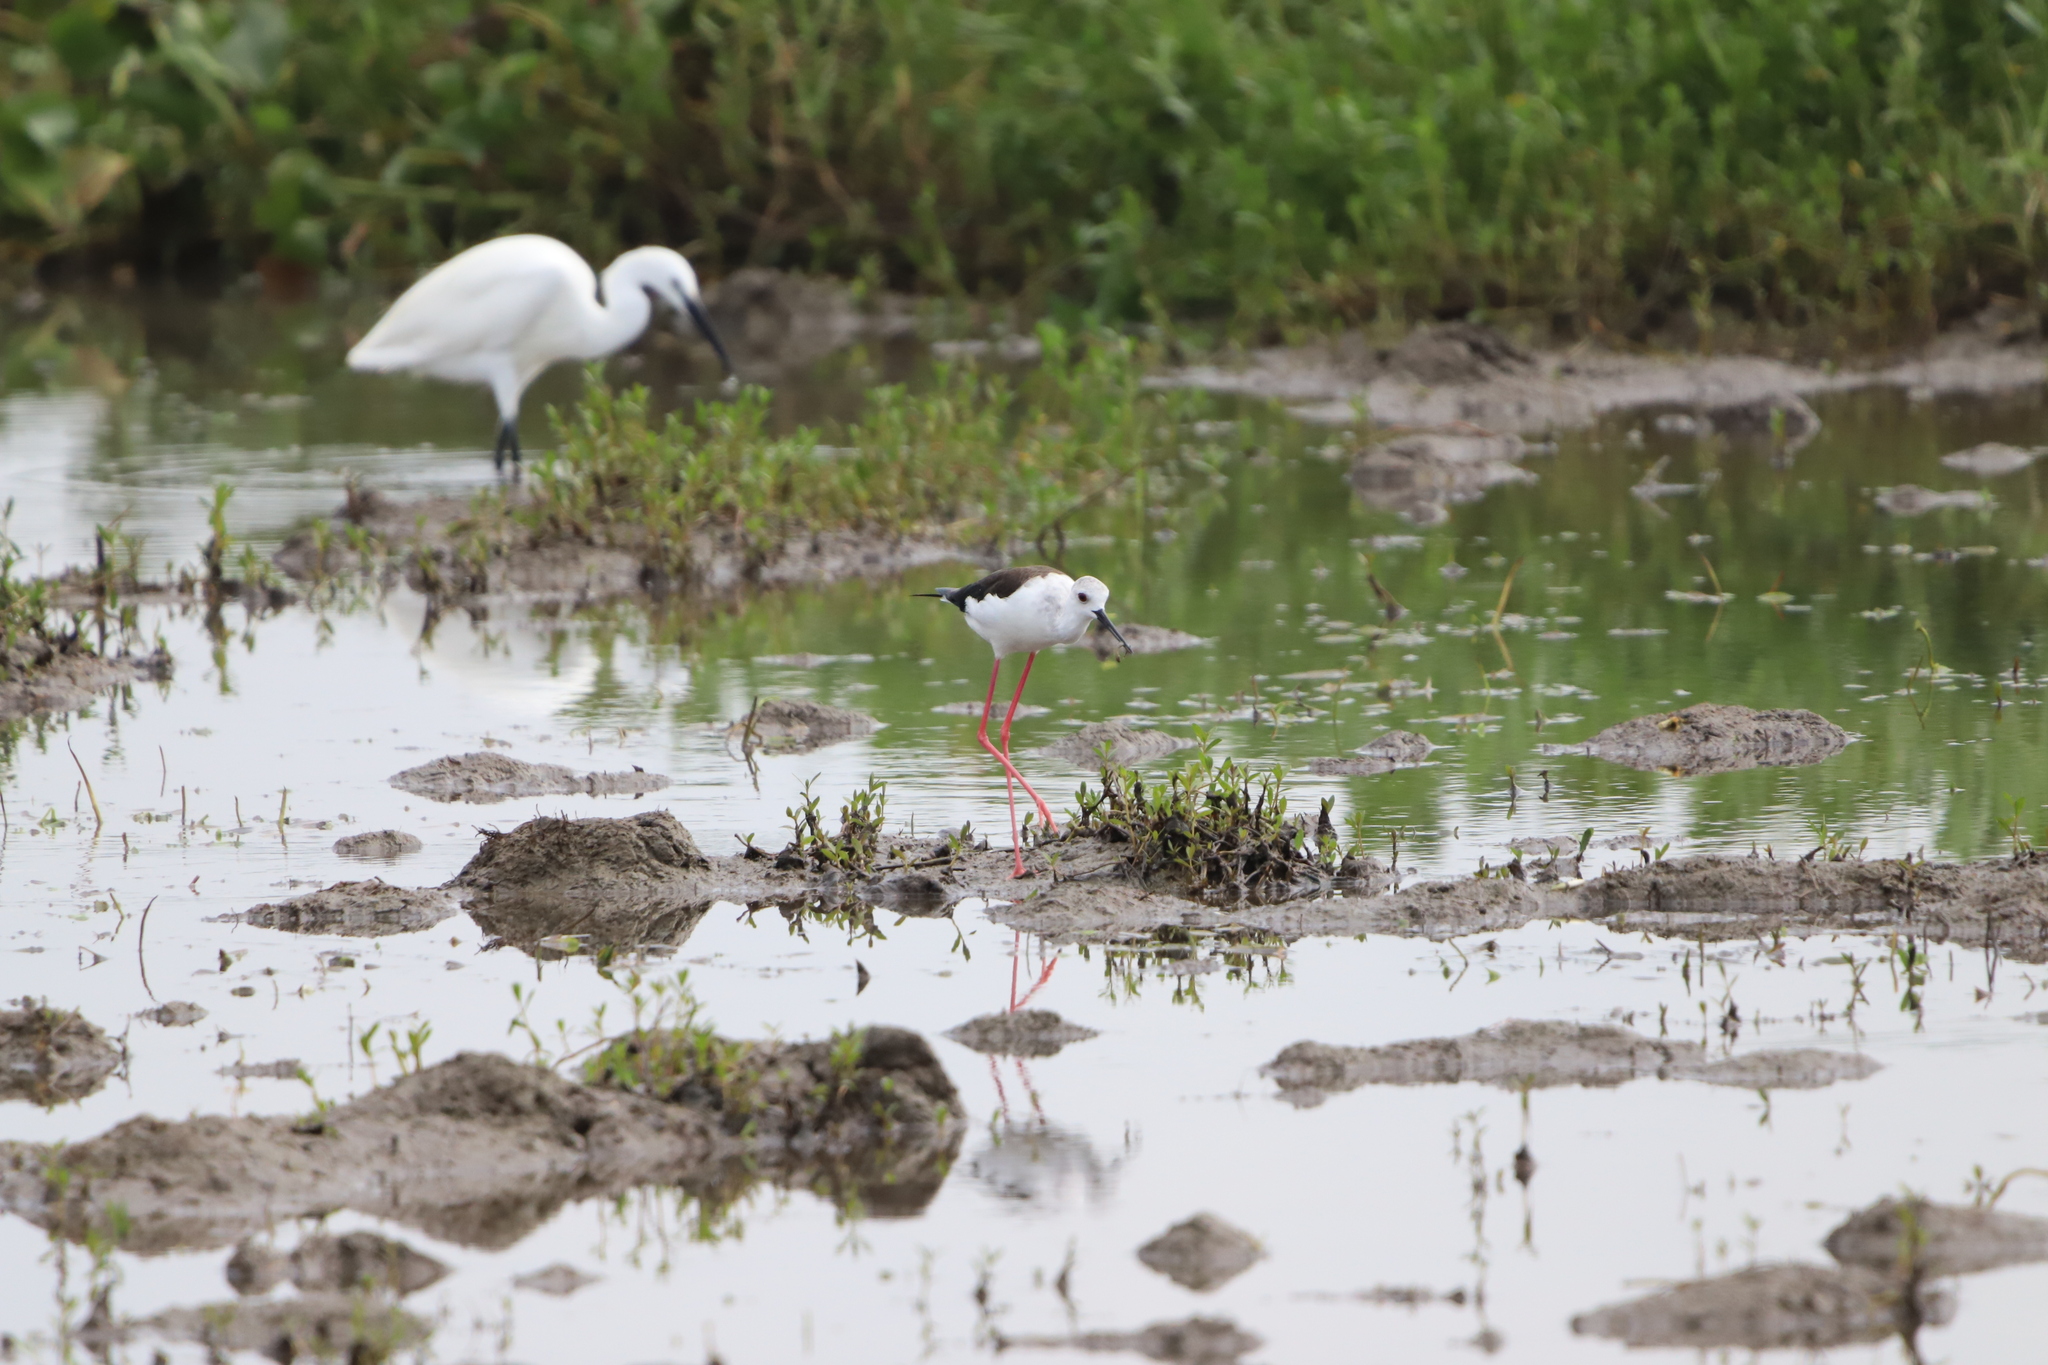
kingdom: Animalia
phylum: Chordata
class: Aves
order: Charadriiformes
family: Recurvirostridae
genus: Himantopus
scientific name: Himantopus himantopus
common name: Black-winged stilt
